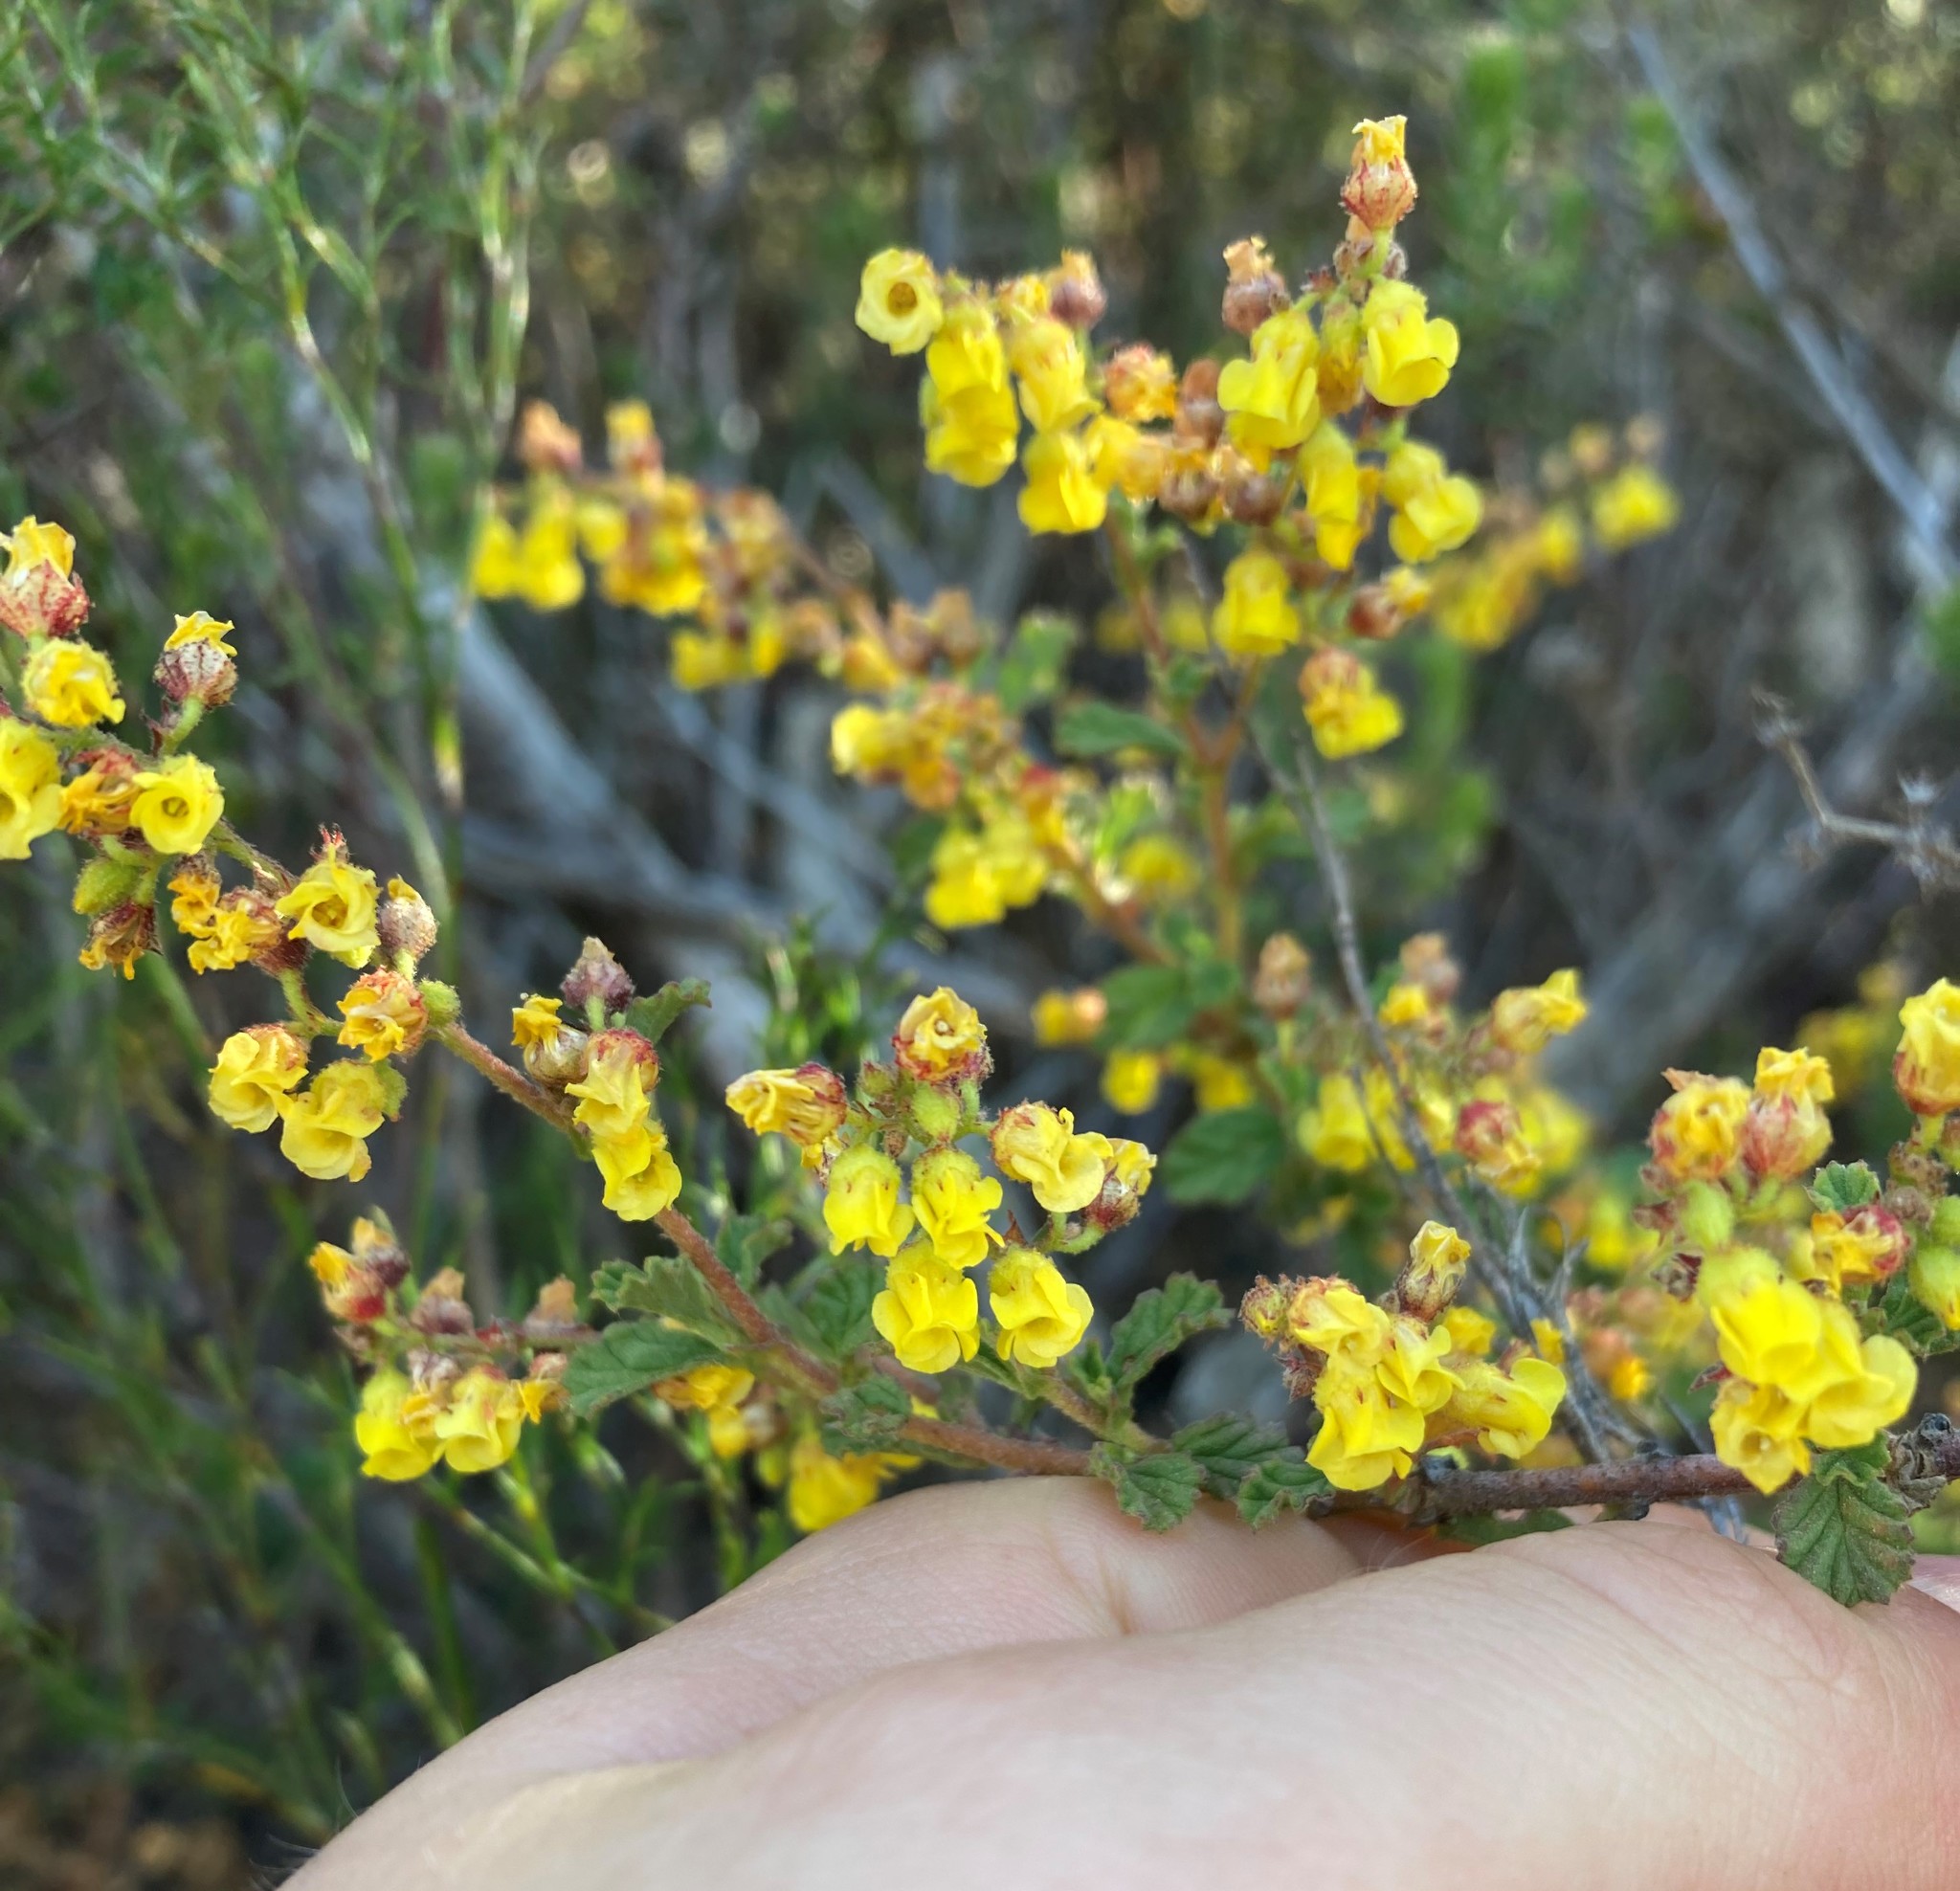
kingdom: Plantae
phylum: Tracheophyta
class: Magnoliopsida
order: Malvales
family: Malvaceae
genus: Hermannia
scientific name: Hermannia alnifolia
